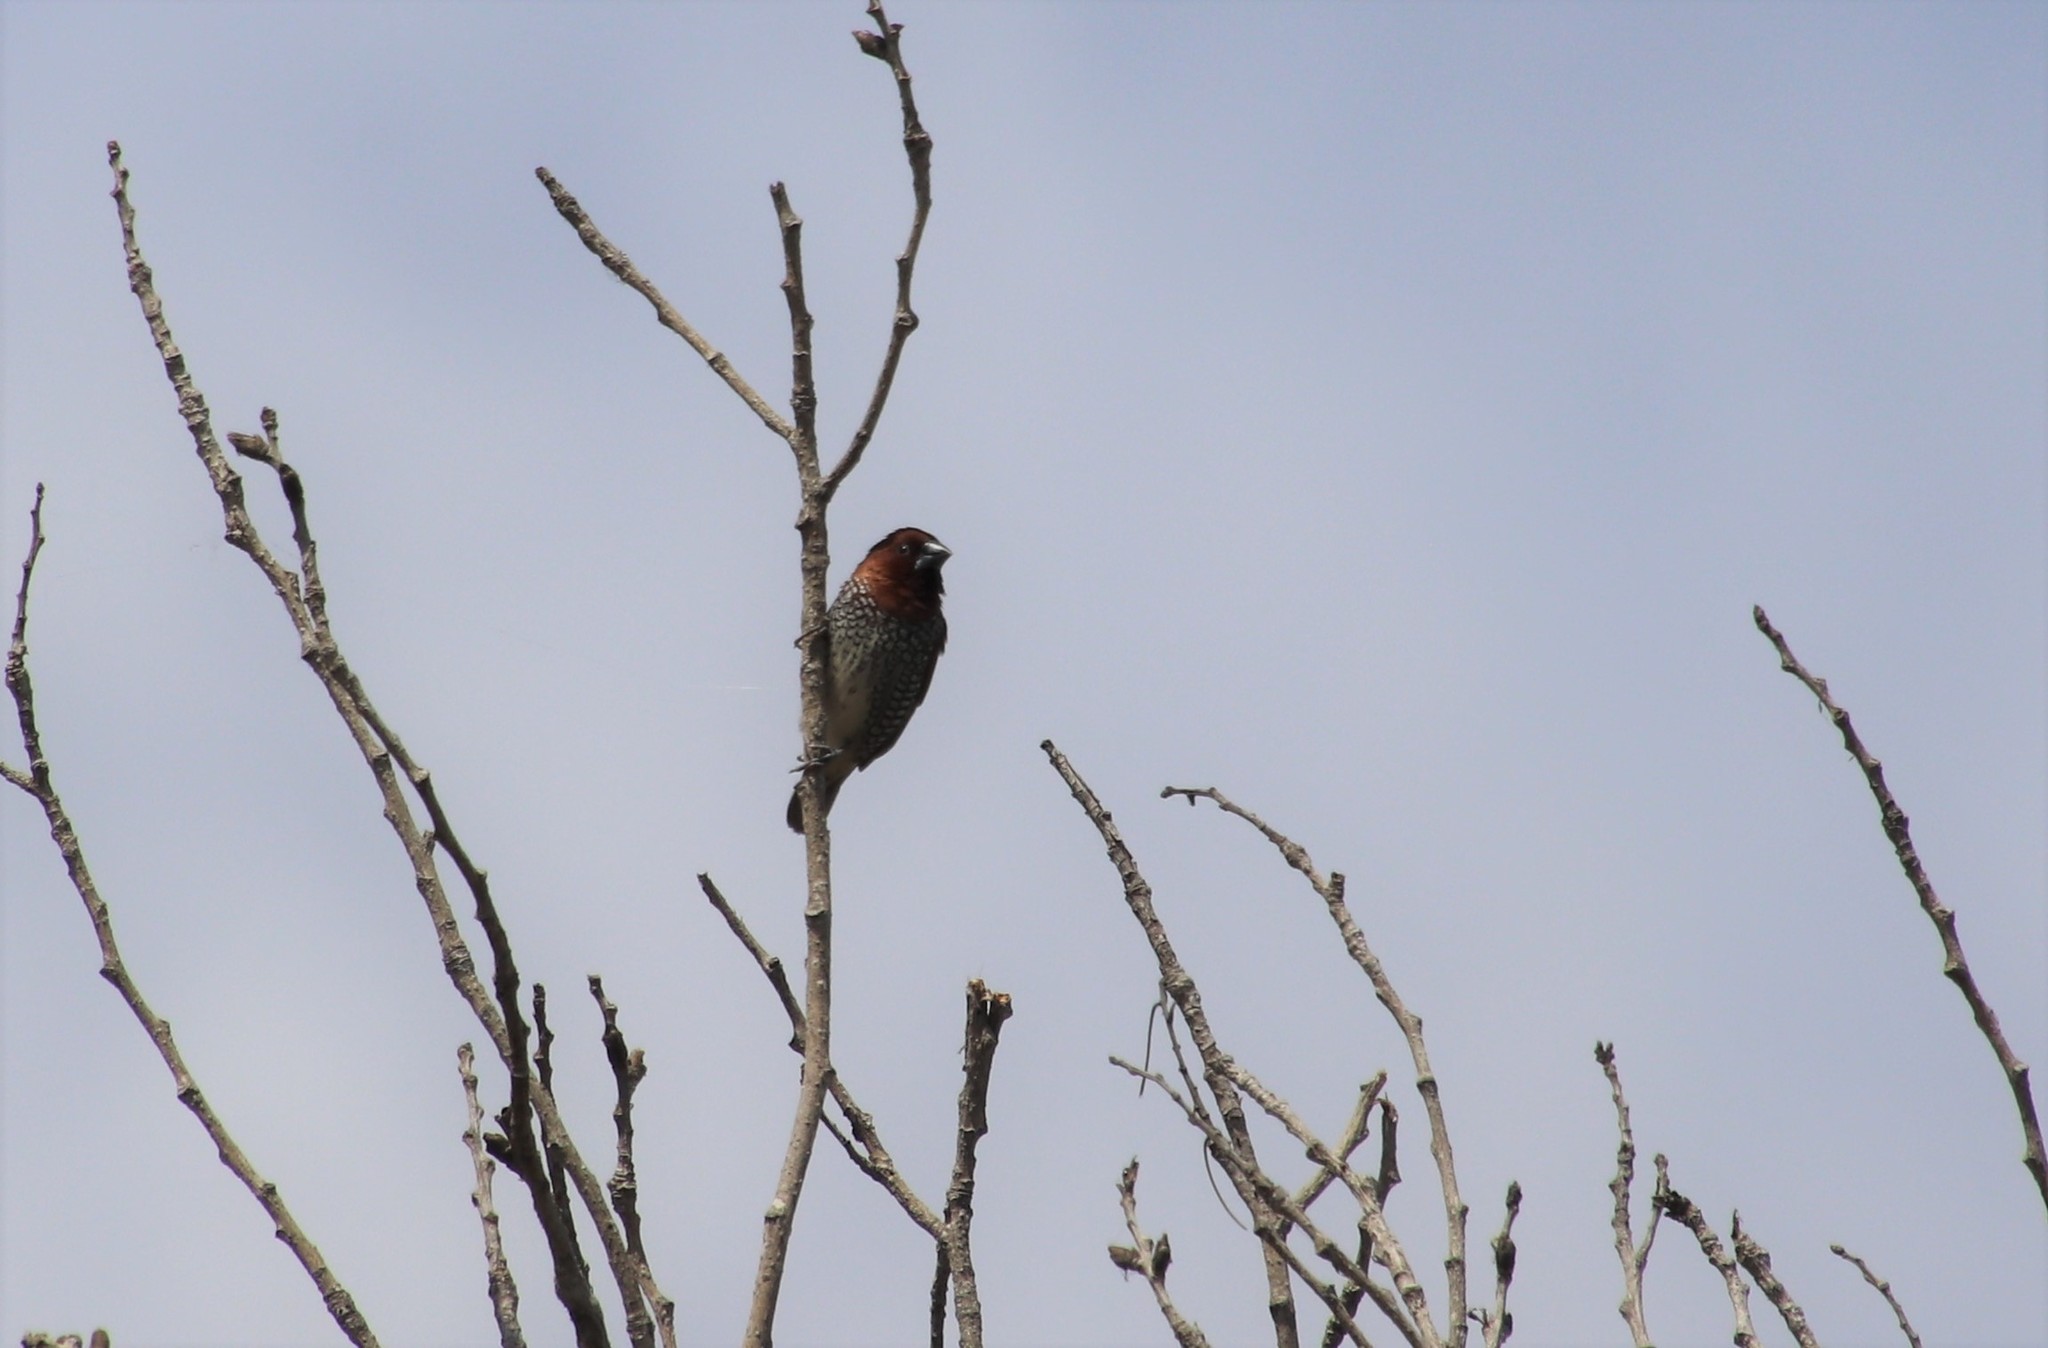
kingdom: Animalia
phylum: Chordata
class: Aves
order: Passeriformes
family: Estrildidae
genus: Lonchura
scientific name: Lonchura punctulata
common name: Scaly-breasted munia
